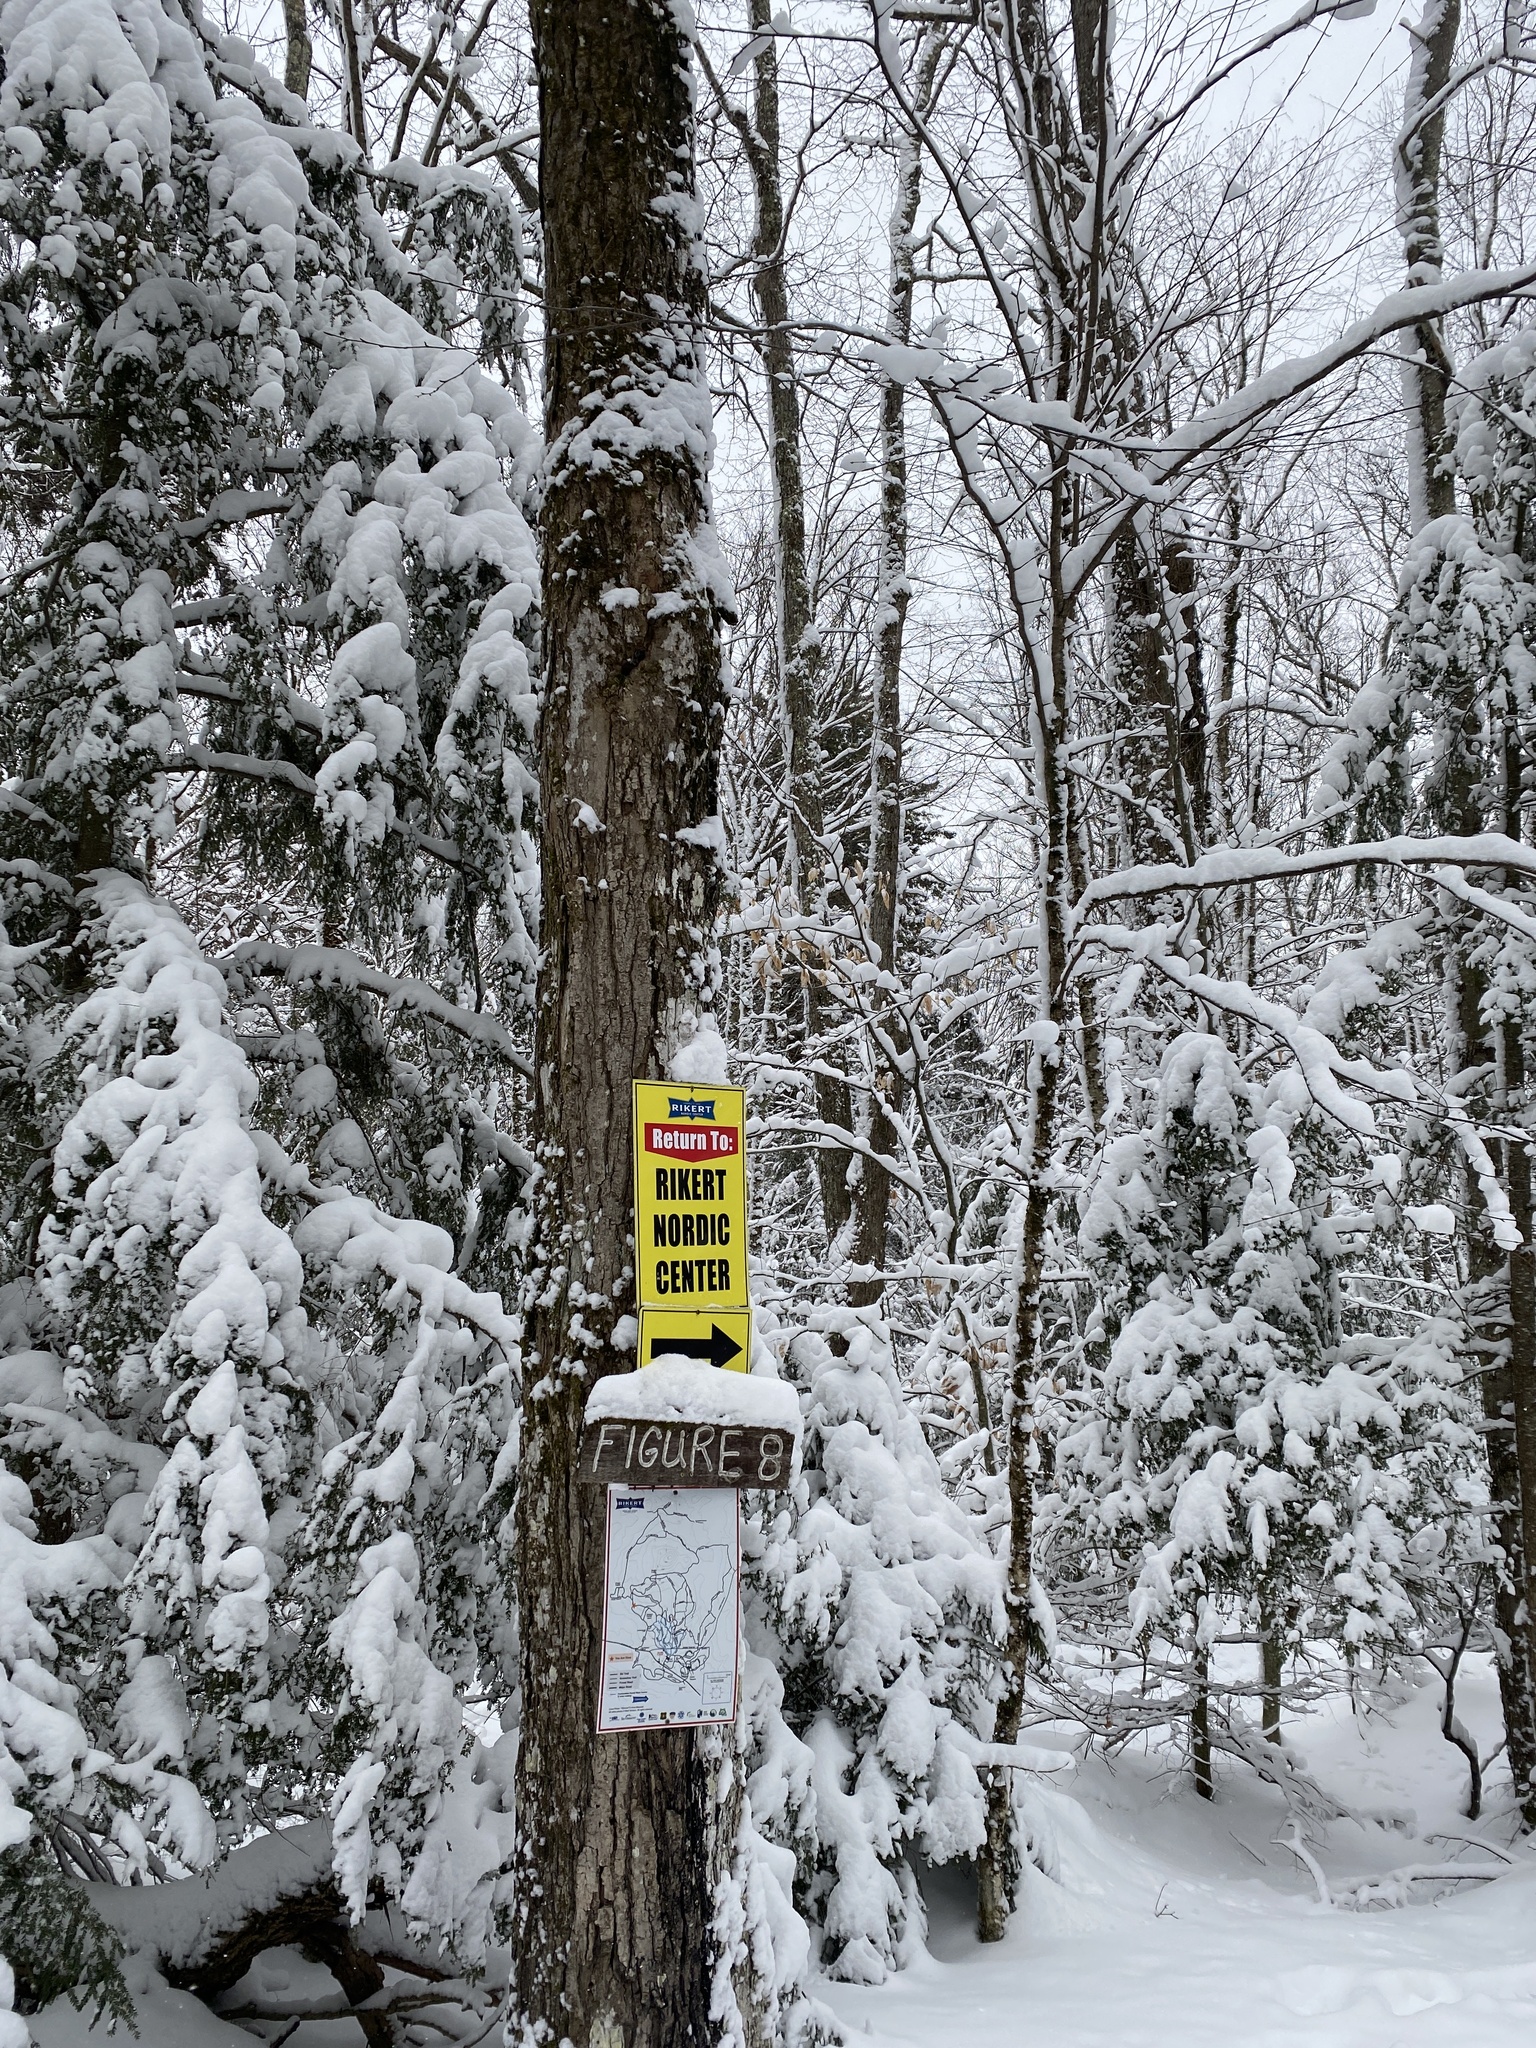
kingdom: Plantae
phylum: Tracheophyta
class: Magnoliopsida
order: Sapindales
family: Sapindaceae
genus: Acer
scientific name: Acer saccharum
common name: Sugar maple
